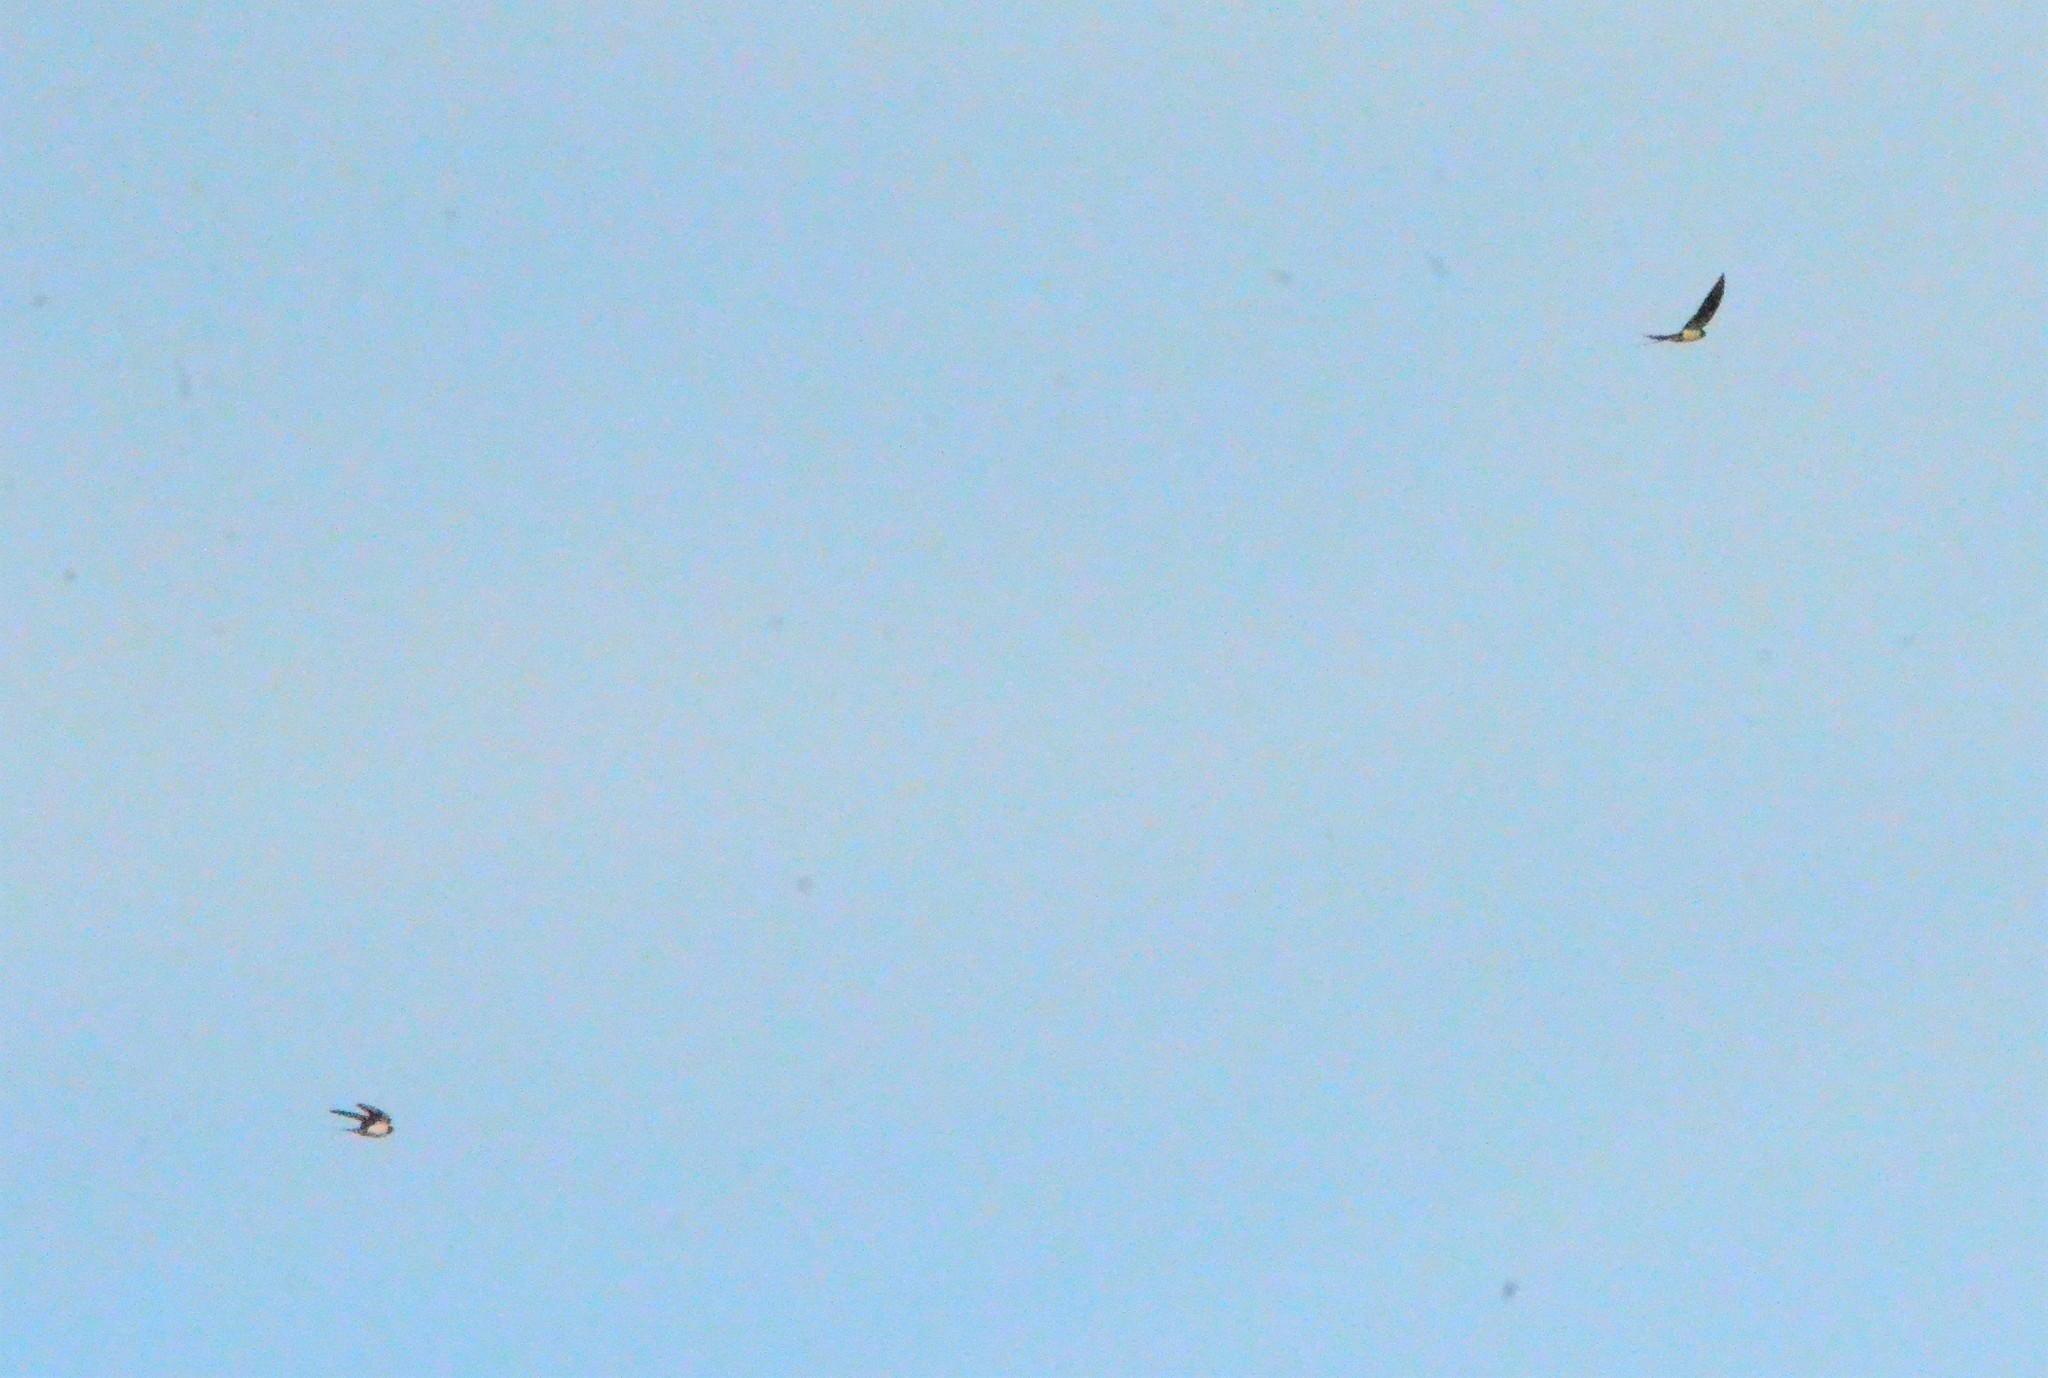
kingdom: Animalia
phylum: Chordata
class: Aves
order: Passeriformes
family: Hirundinidae
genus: Hirundo
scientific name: Hirundo rustica
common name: Barn swallow
